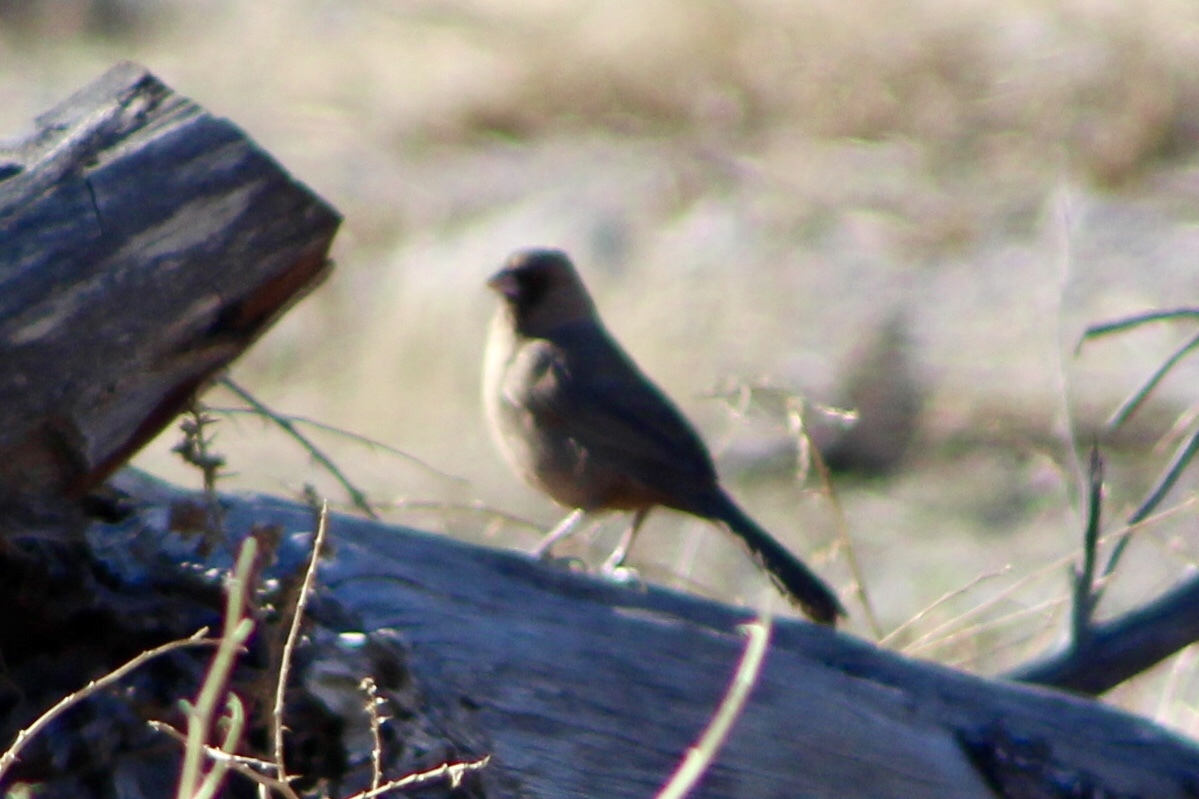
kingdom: Animalia
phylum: Chordata
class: Aves
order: Passeriformes
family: Passerellidae
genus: Melozone
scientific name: Melozone aberti
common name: Abert's towhee
